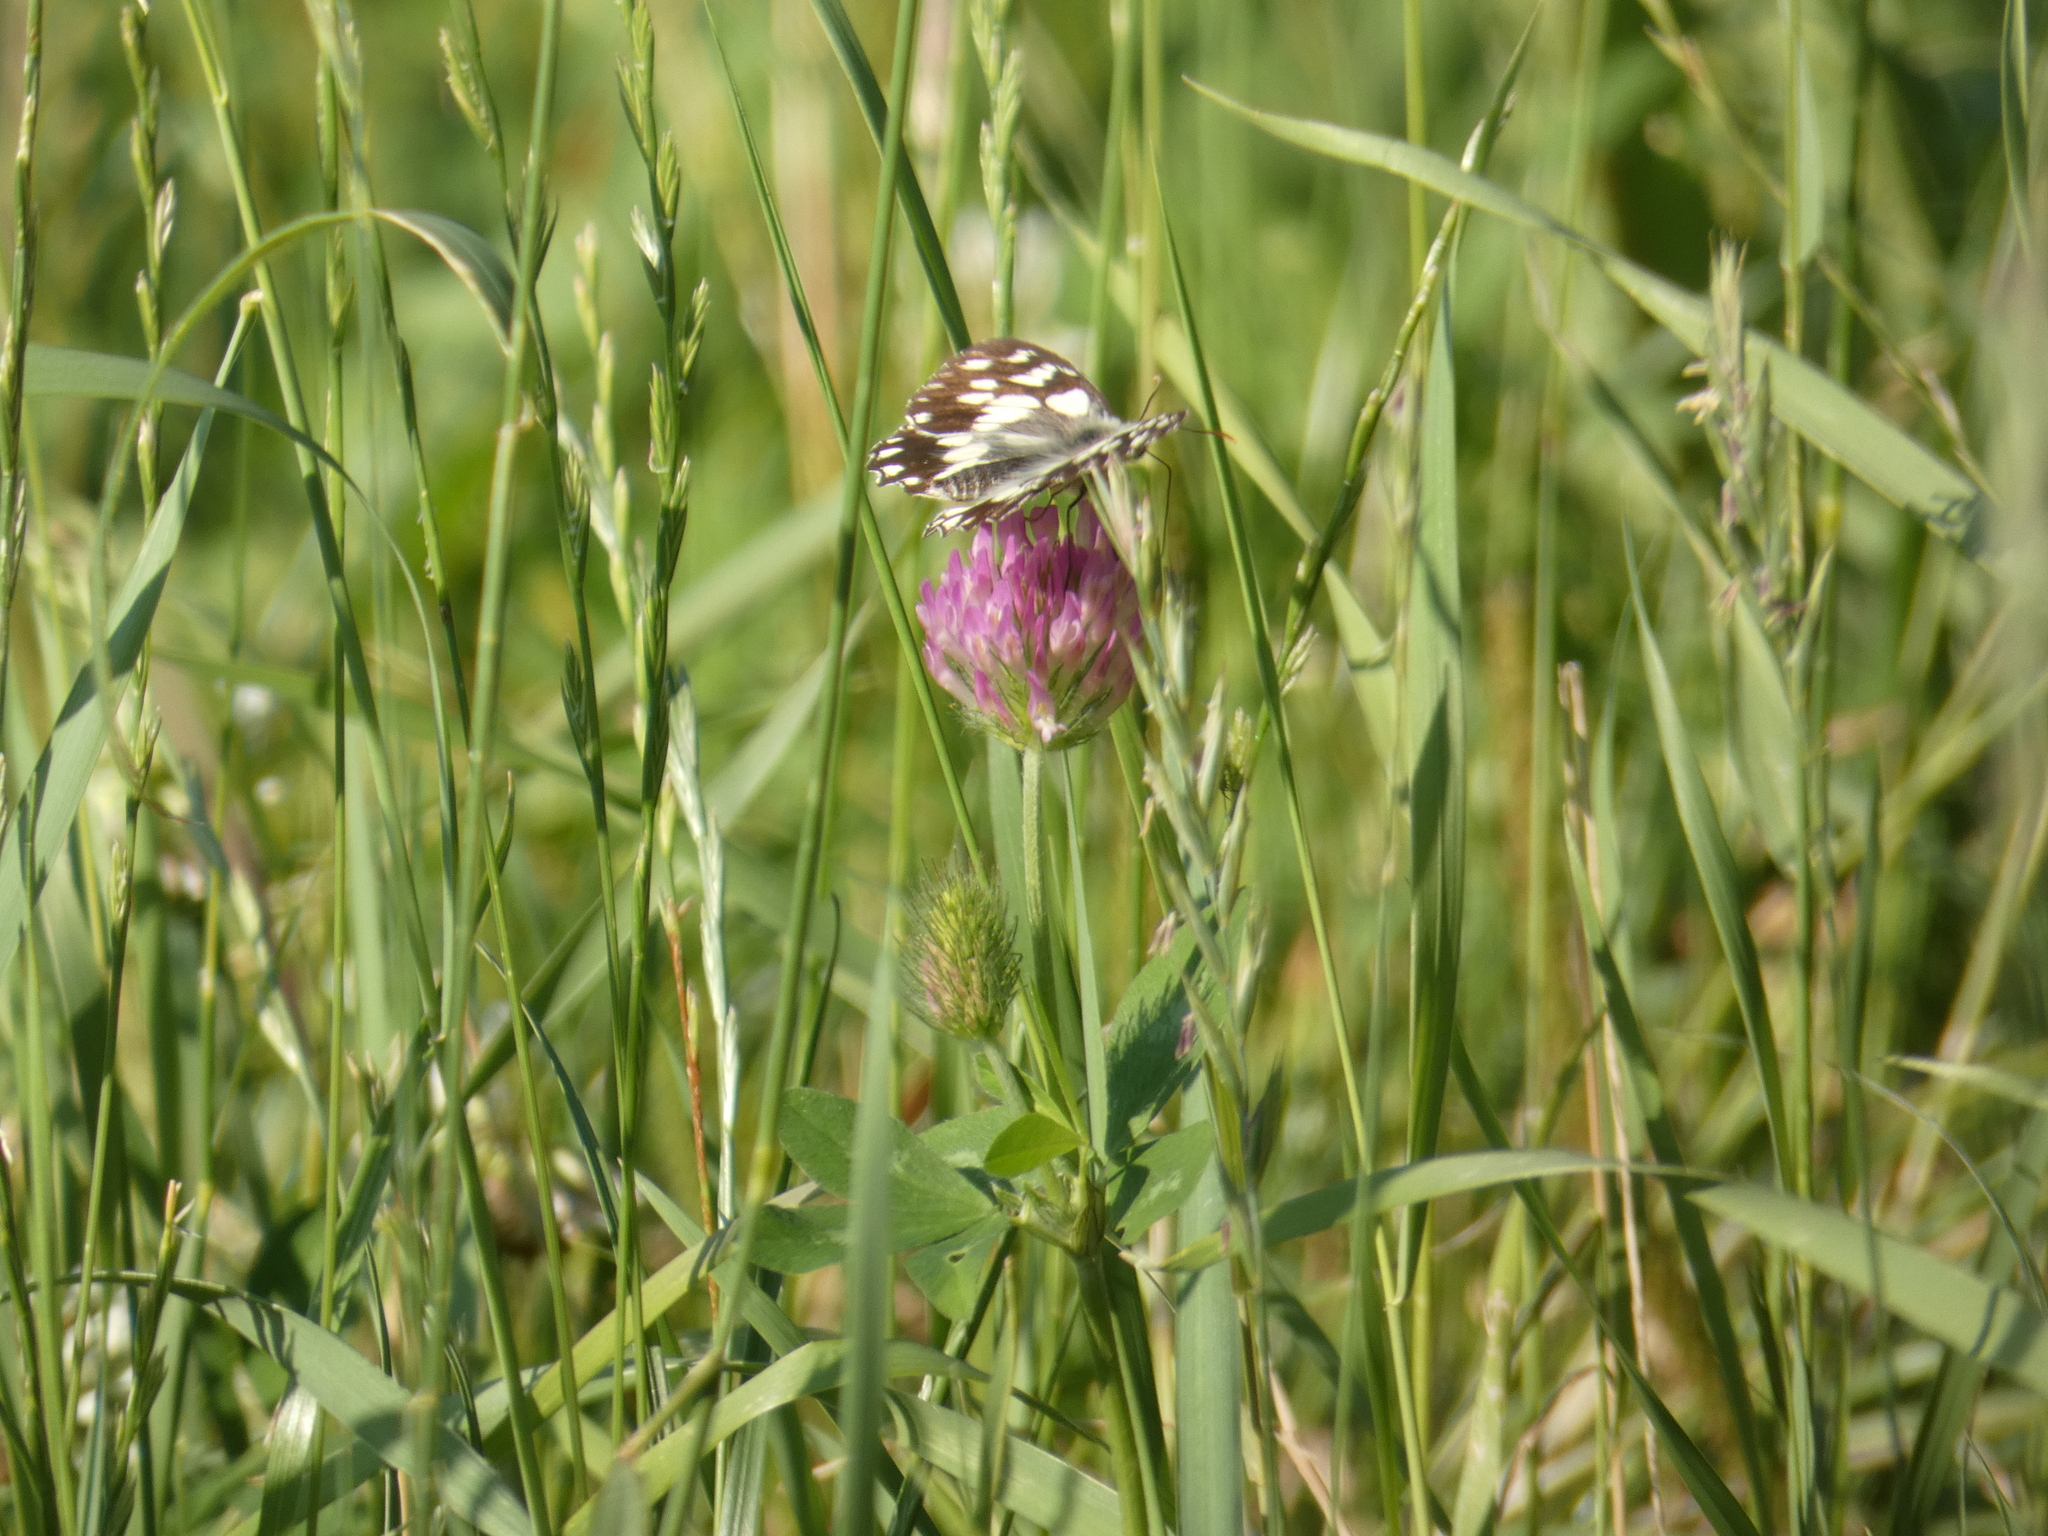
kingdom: Animalia
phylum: Arthropoda
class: Insecta
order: Lepidoptera
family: Nymphalidae
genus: Melanargia
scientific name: Melanargia galathea
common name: Marbled white
